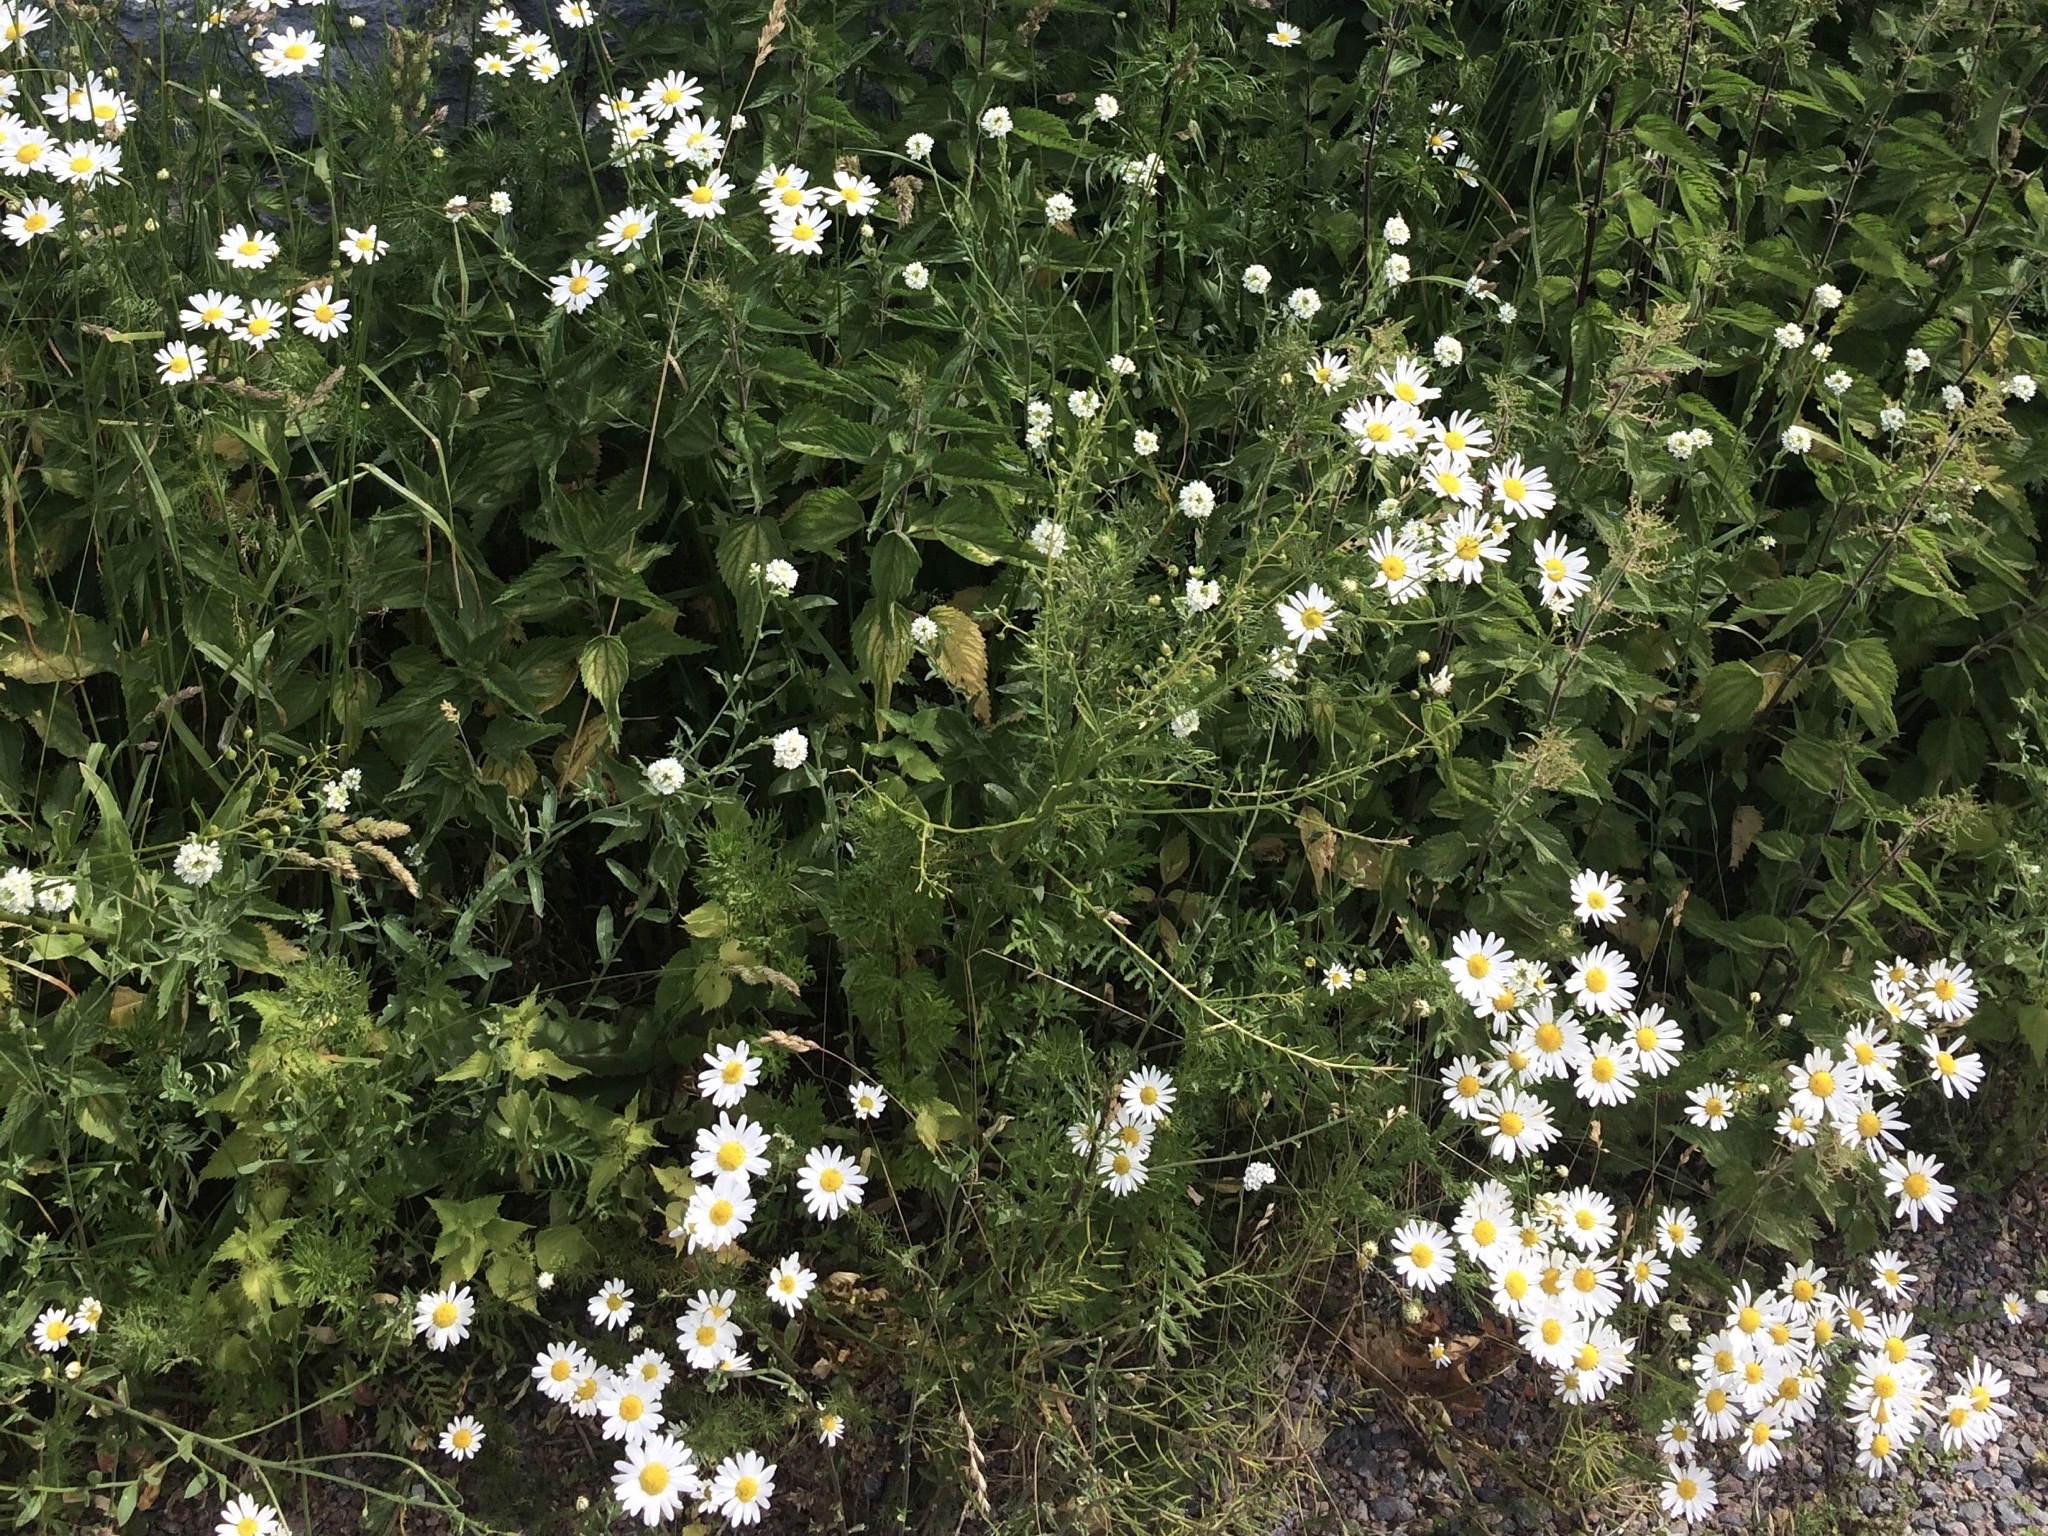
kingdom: Plantae
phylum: Tracheophyta
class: Magnoliopsida
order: Asterales
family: Asteraceae
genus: Tripleurospermum
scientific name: Tripleurospermum inodorum
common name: Scentless mayweed
